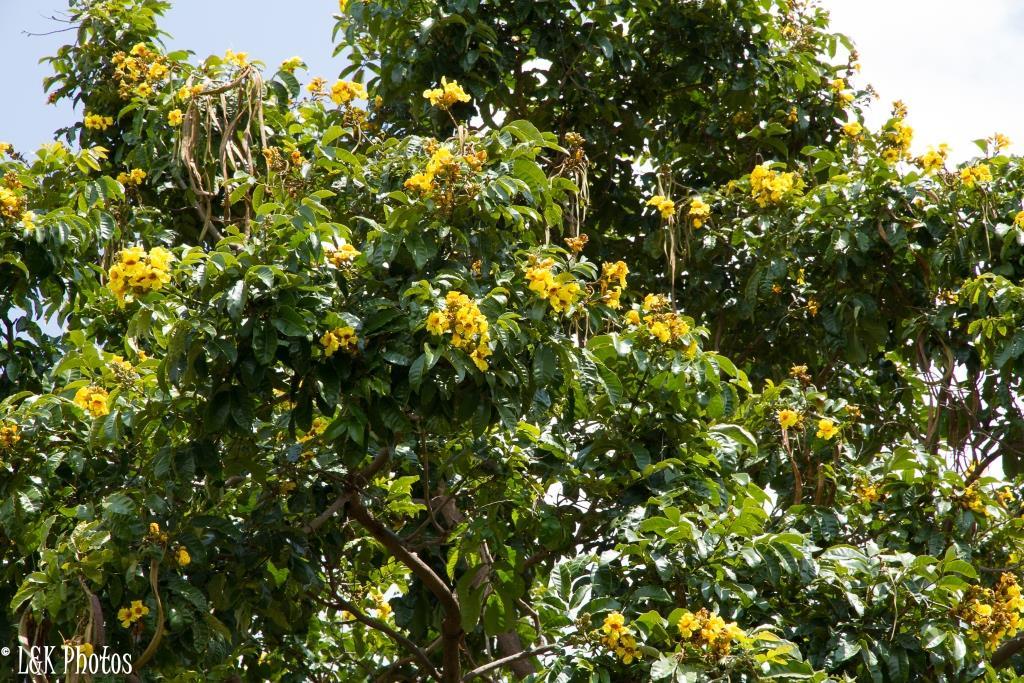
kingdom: Plantae
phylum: Tracheophyta
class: Magnoliopsida
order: Lamiales
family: Bignoniaceae
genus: Markhamia
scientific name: Markhamia lutea
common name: Siala
